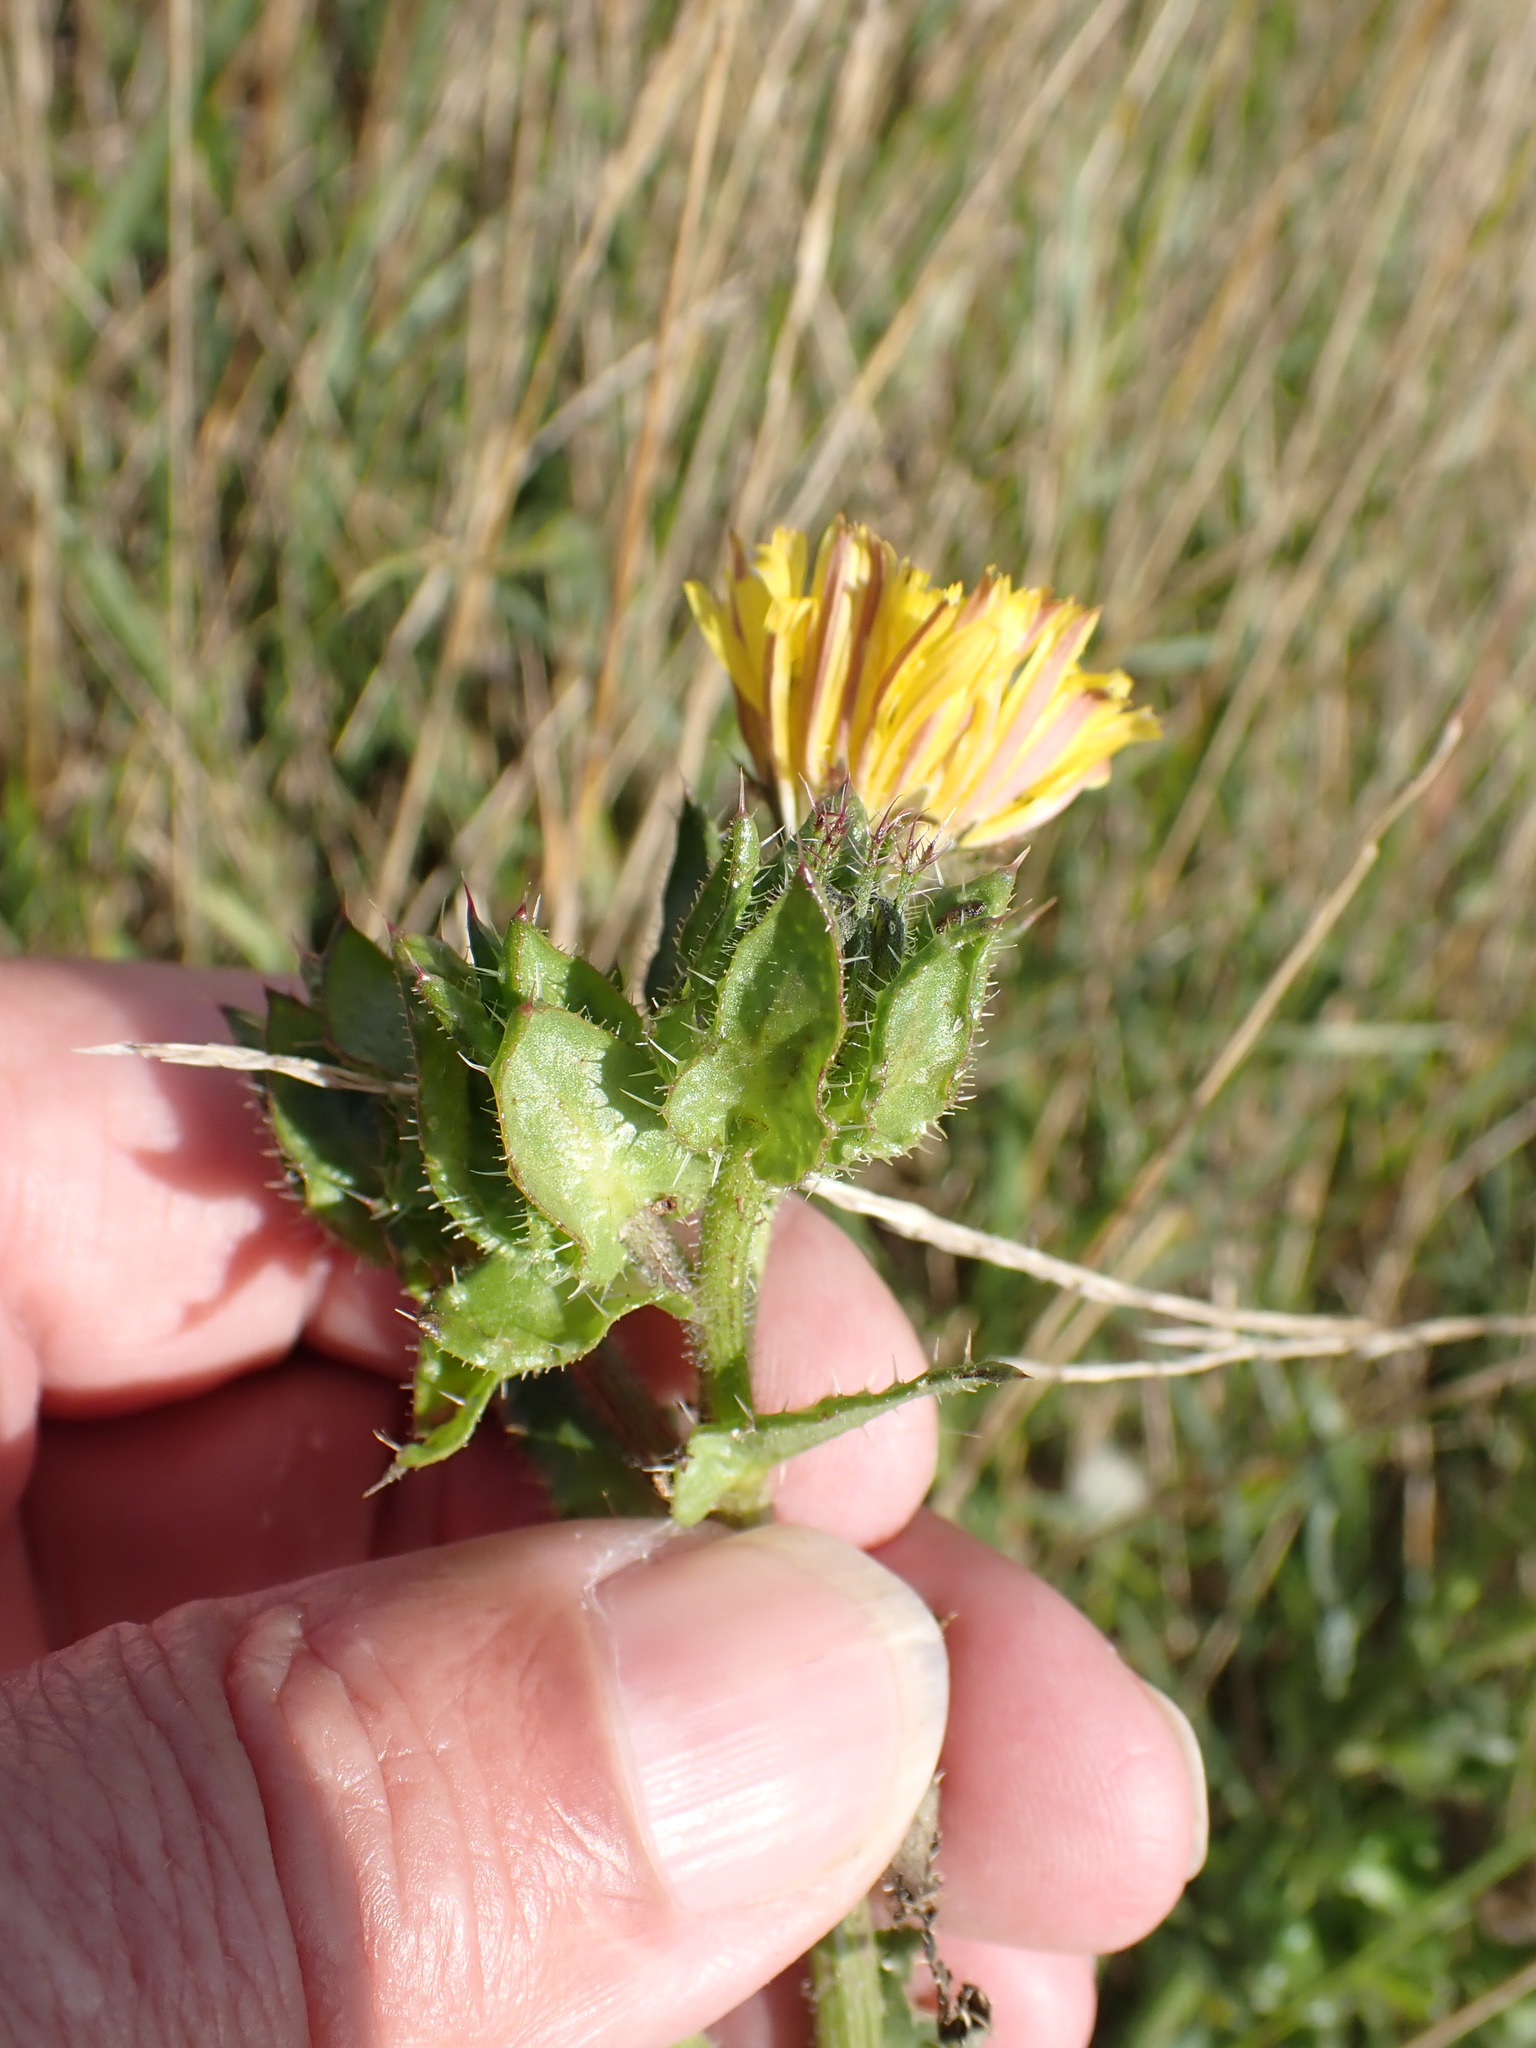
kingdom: Plantae
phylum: Tracheophyta
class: Magnoliopsida
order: Asterales
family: Asteraceae
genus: Helminthotheca
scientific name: Helminthotheca echioides
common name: Ox-tongue
